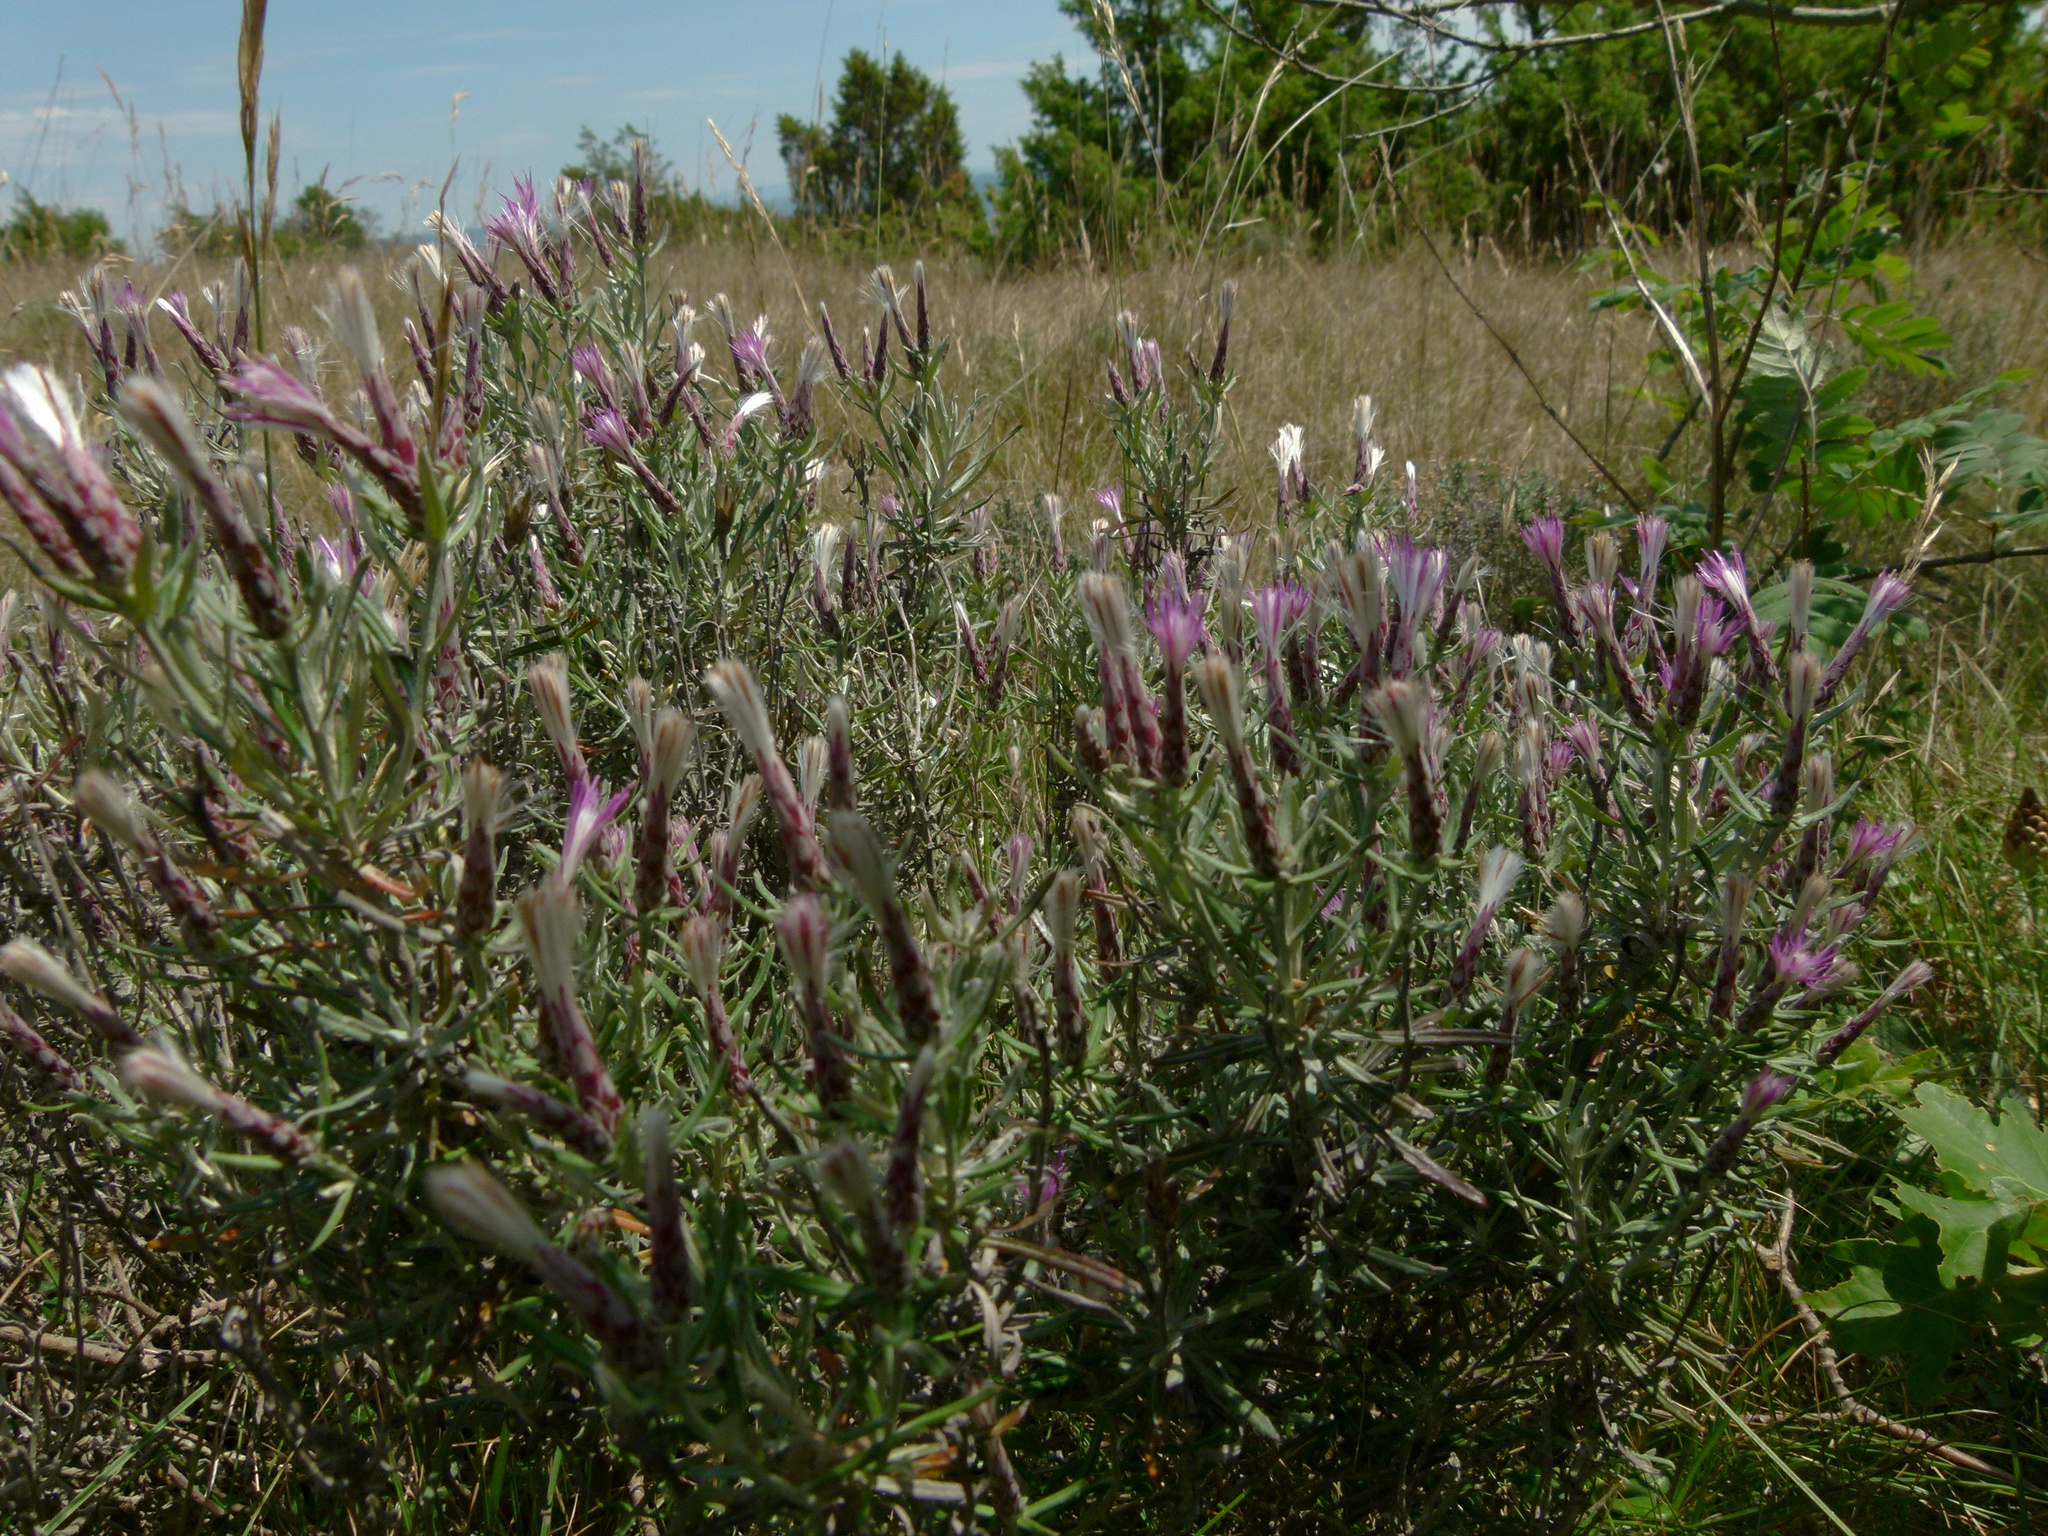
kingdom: Plantae
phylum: Tracheophyta
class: Magnoliopsida
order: Asterales
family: Asteraceae
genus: Staehelina
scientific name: Staehelina dubia
